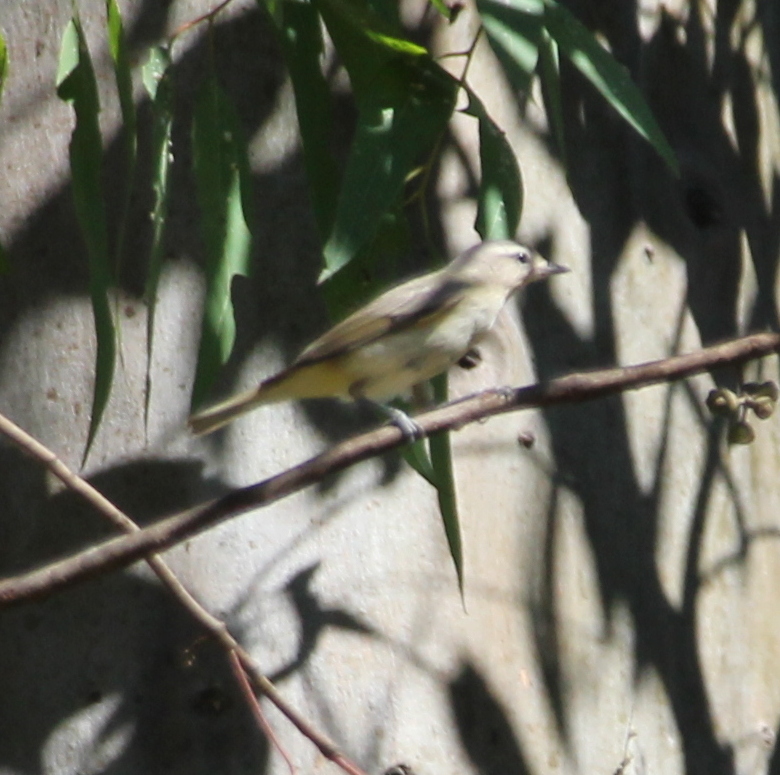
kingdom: Animalia
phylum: Chordata
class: Aves
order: Passeriformes
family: Vireonidae
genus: Vireo
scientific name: Vireo gilvus
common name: Warbling vireo
